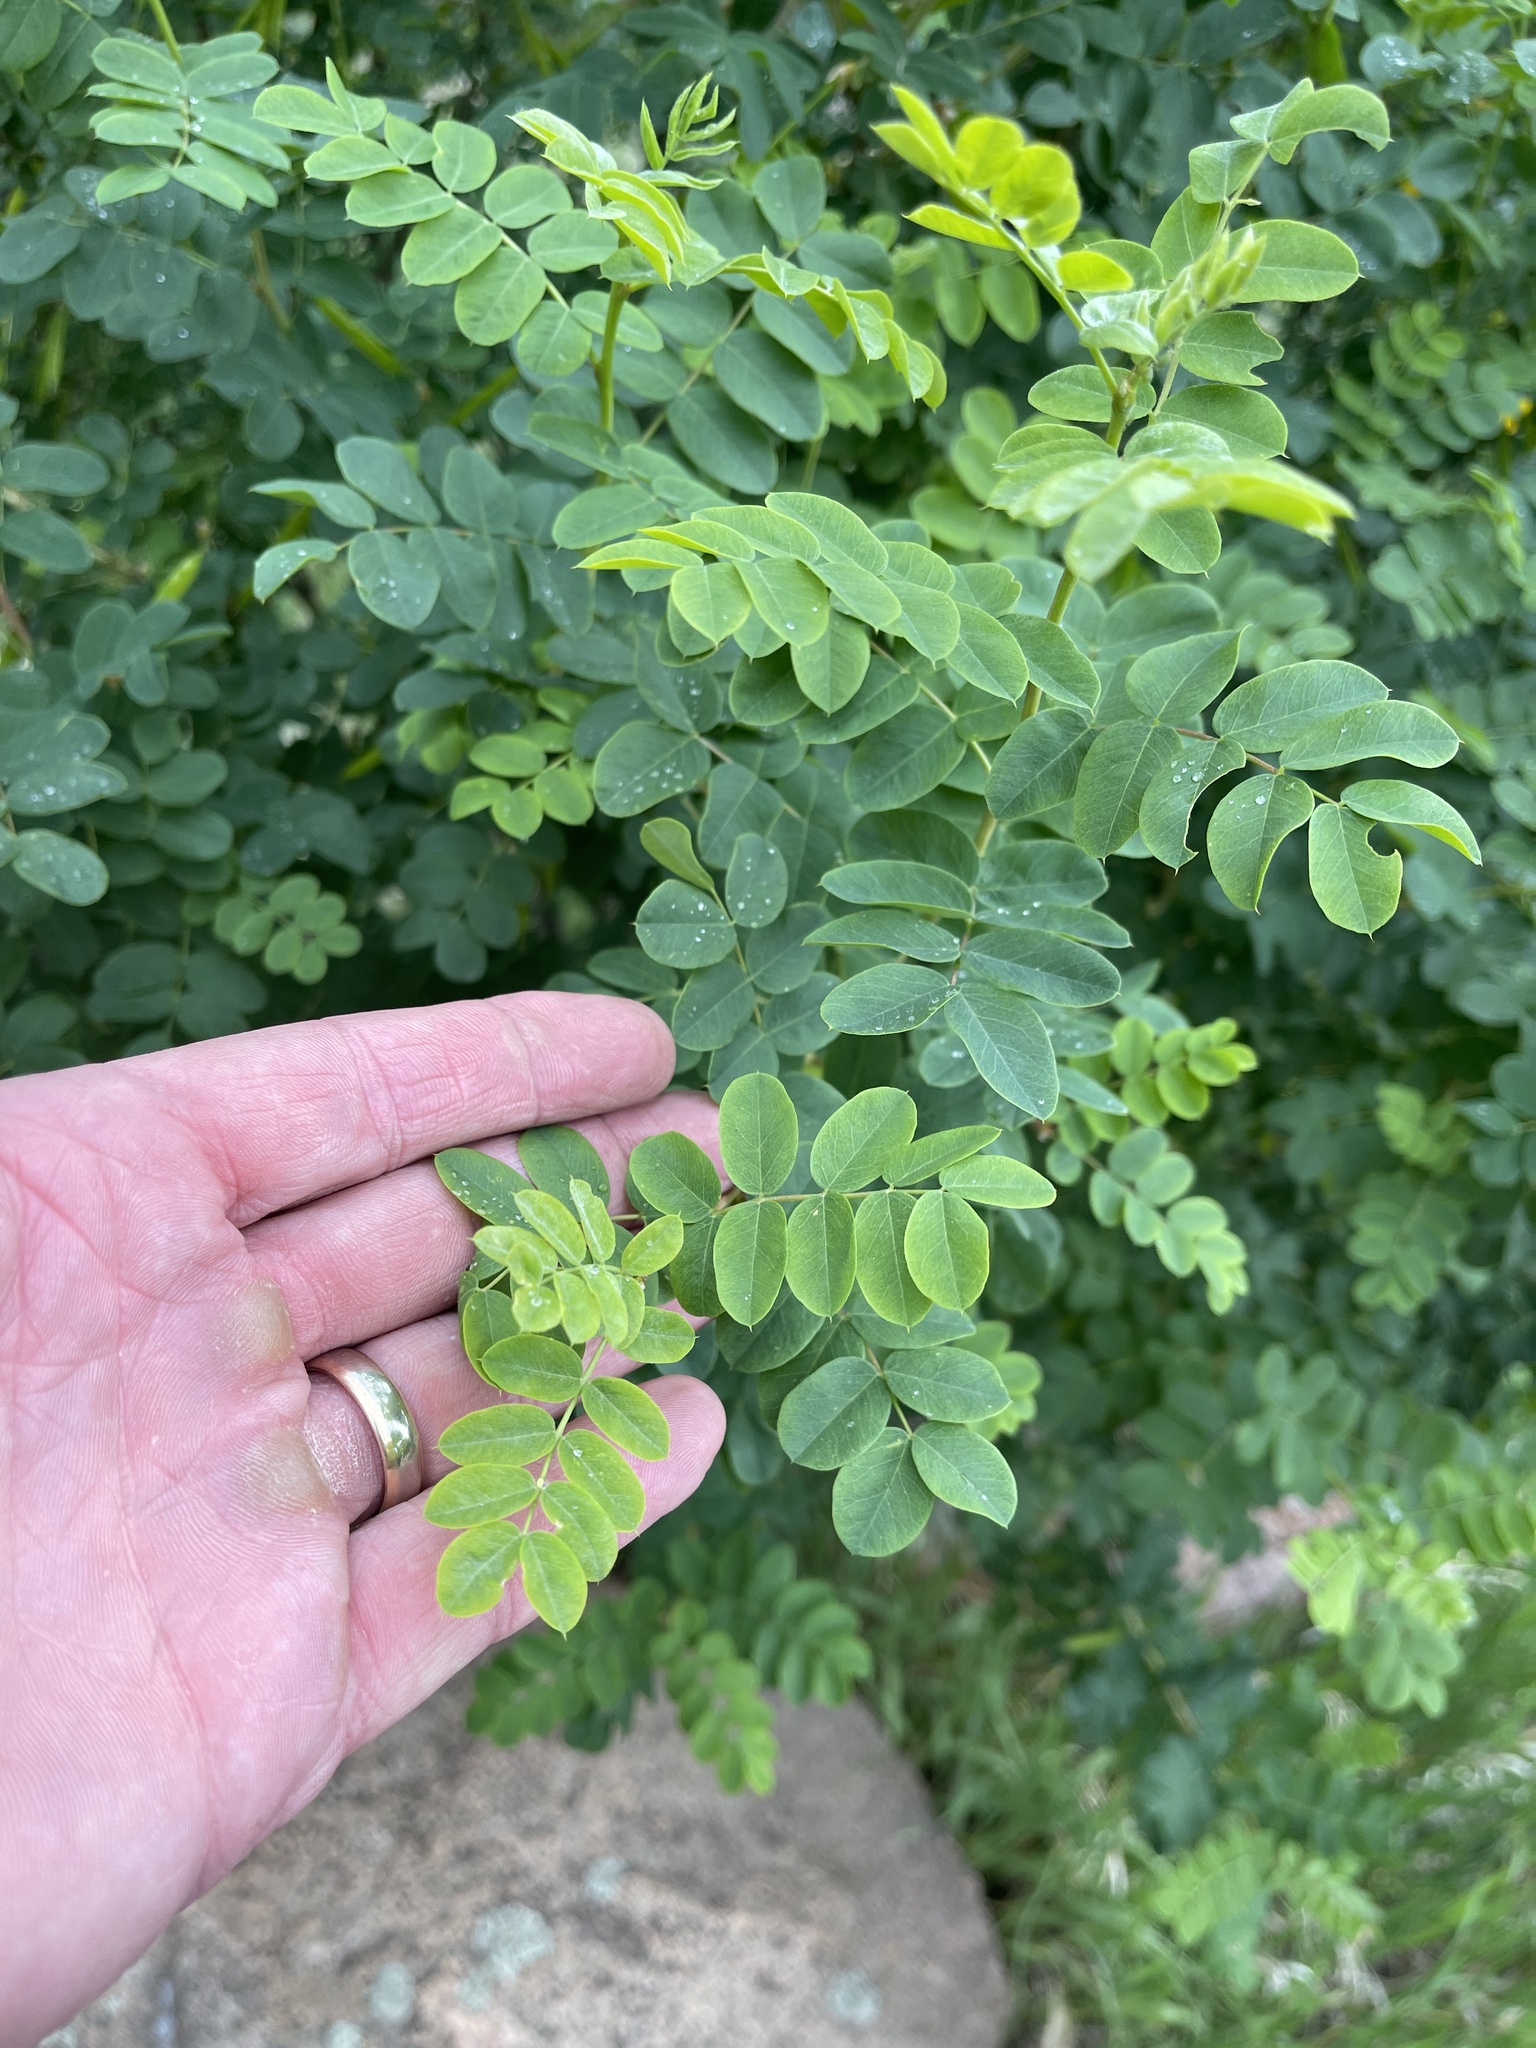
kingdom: Plantae
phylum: Tracheophyta
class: Magnoliopsida
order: Fabales
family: Fabaceae
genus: Caragana
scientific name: Caragana arborescens
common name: Siberian peashrub
